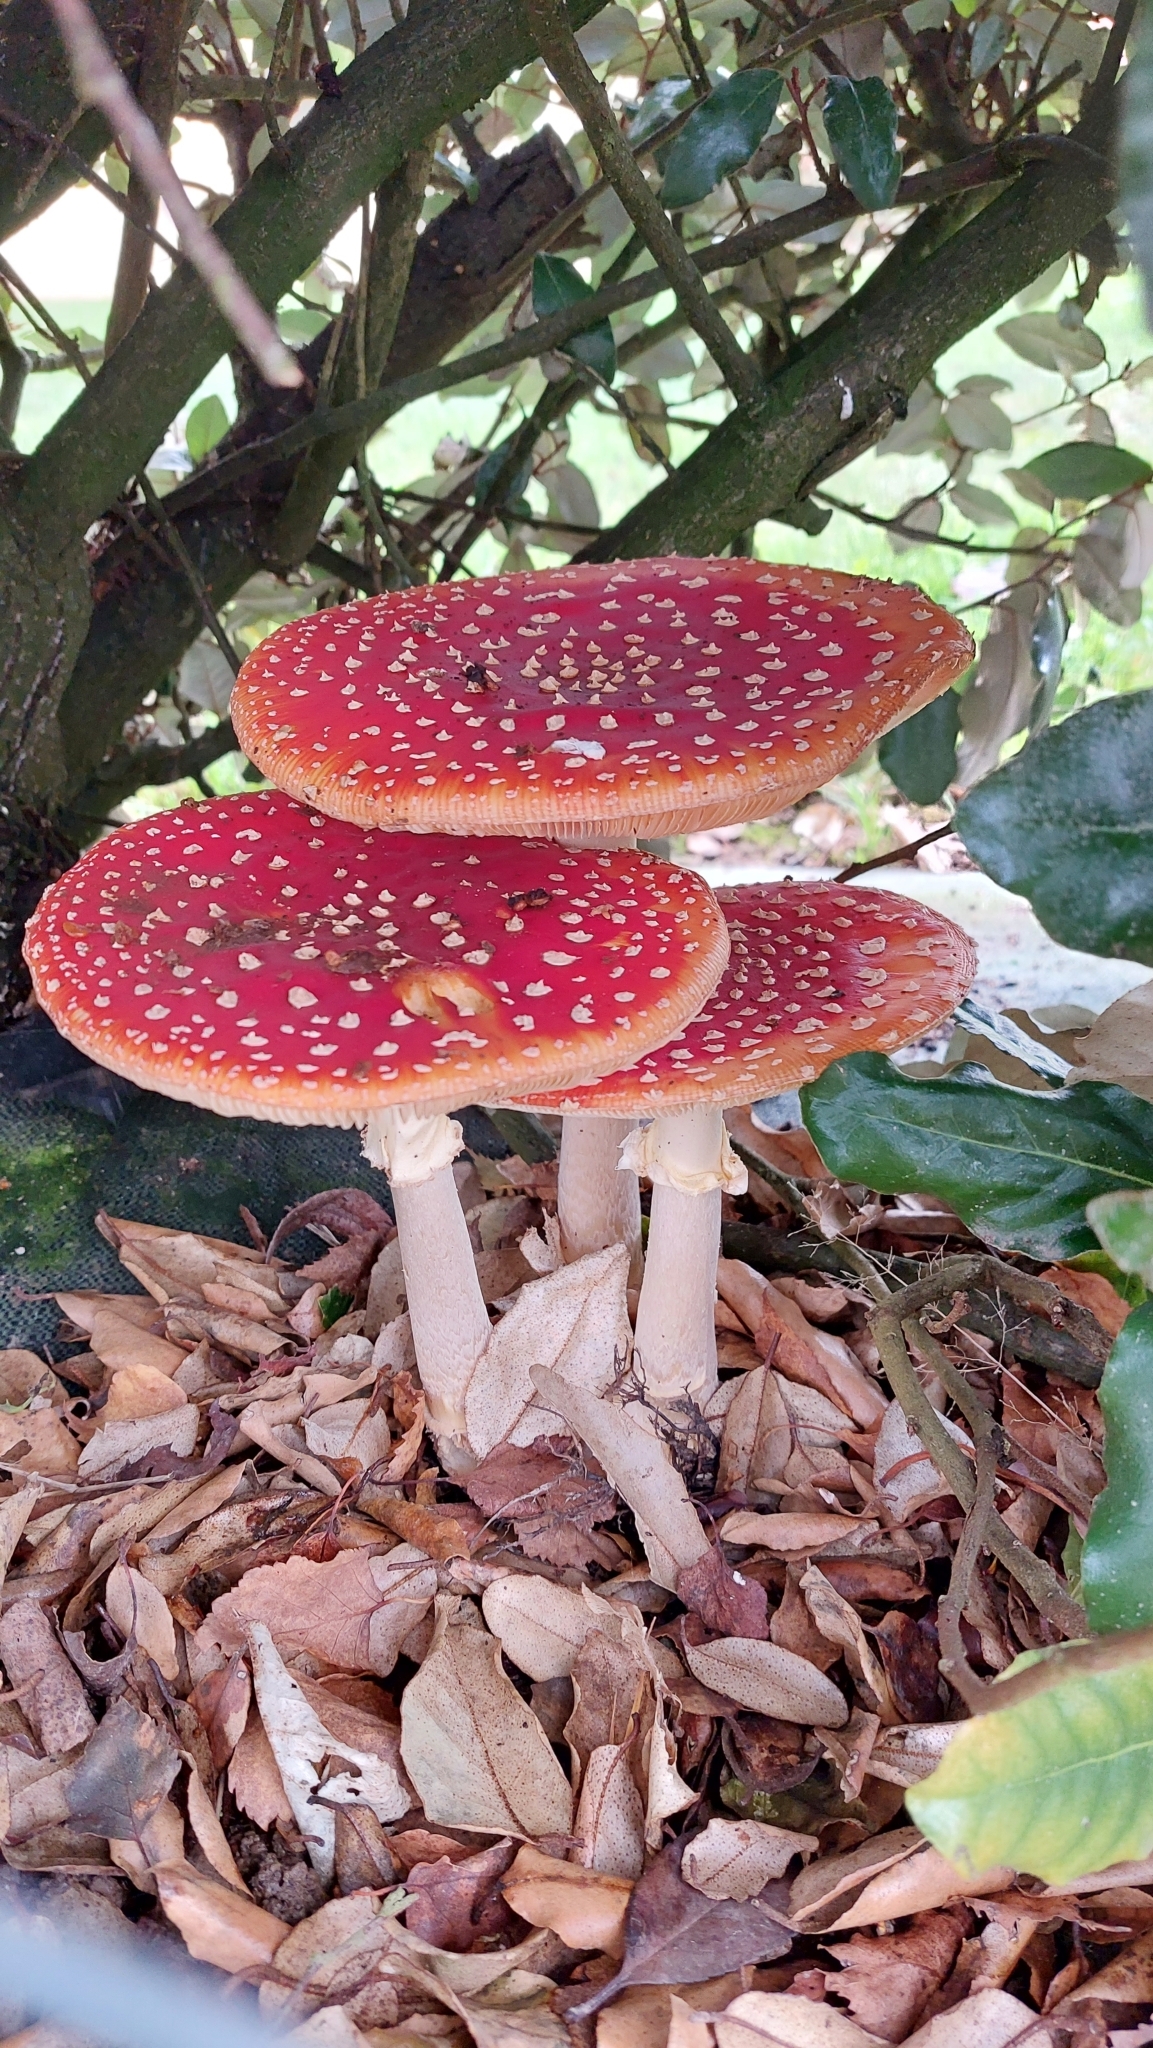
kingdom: Fungi
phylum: Basidiomycota
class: Agaricomycetes
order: Agaricales
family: Amanitaceae
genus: Amanita
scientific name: Amanita muscaria
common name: Fly agaric
